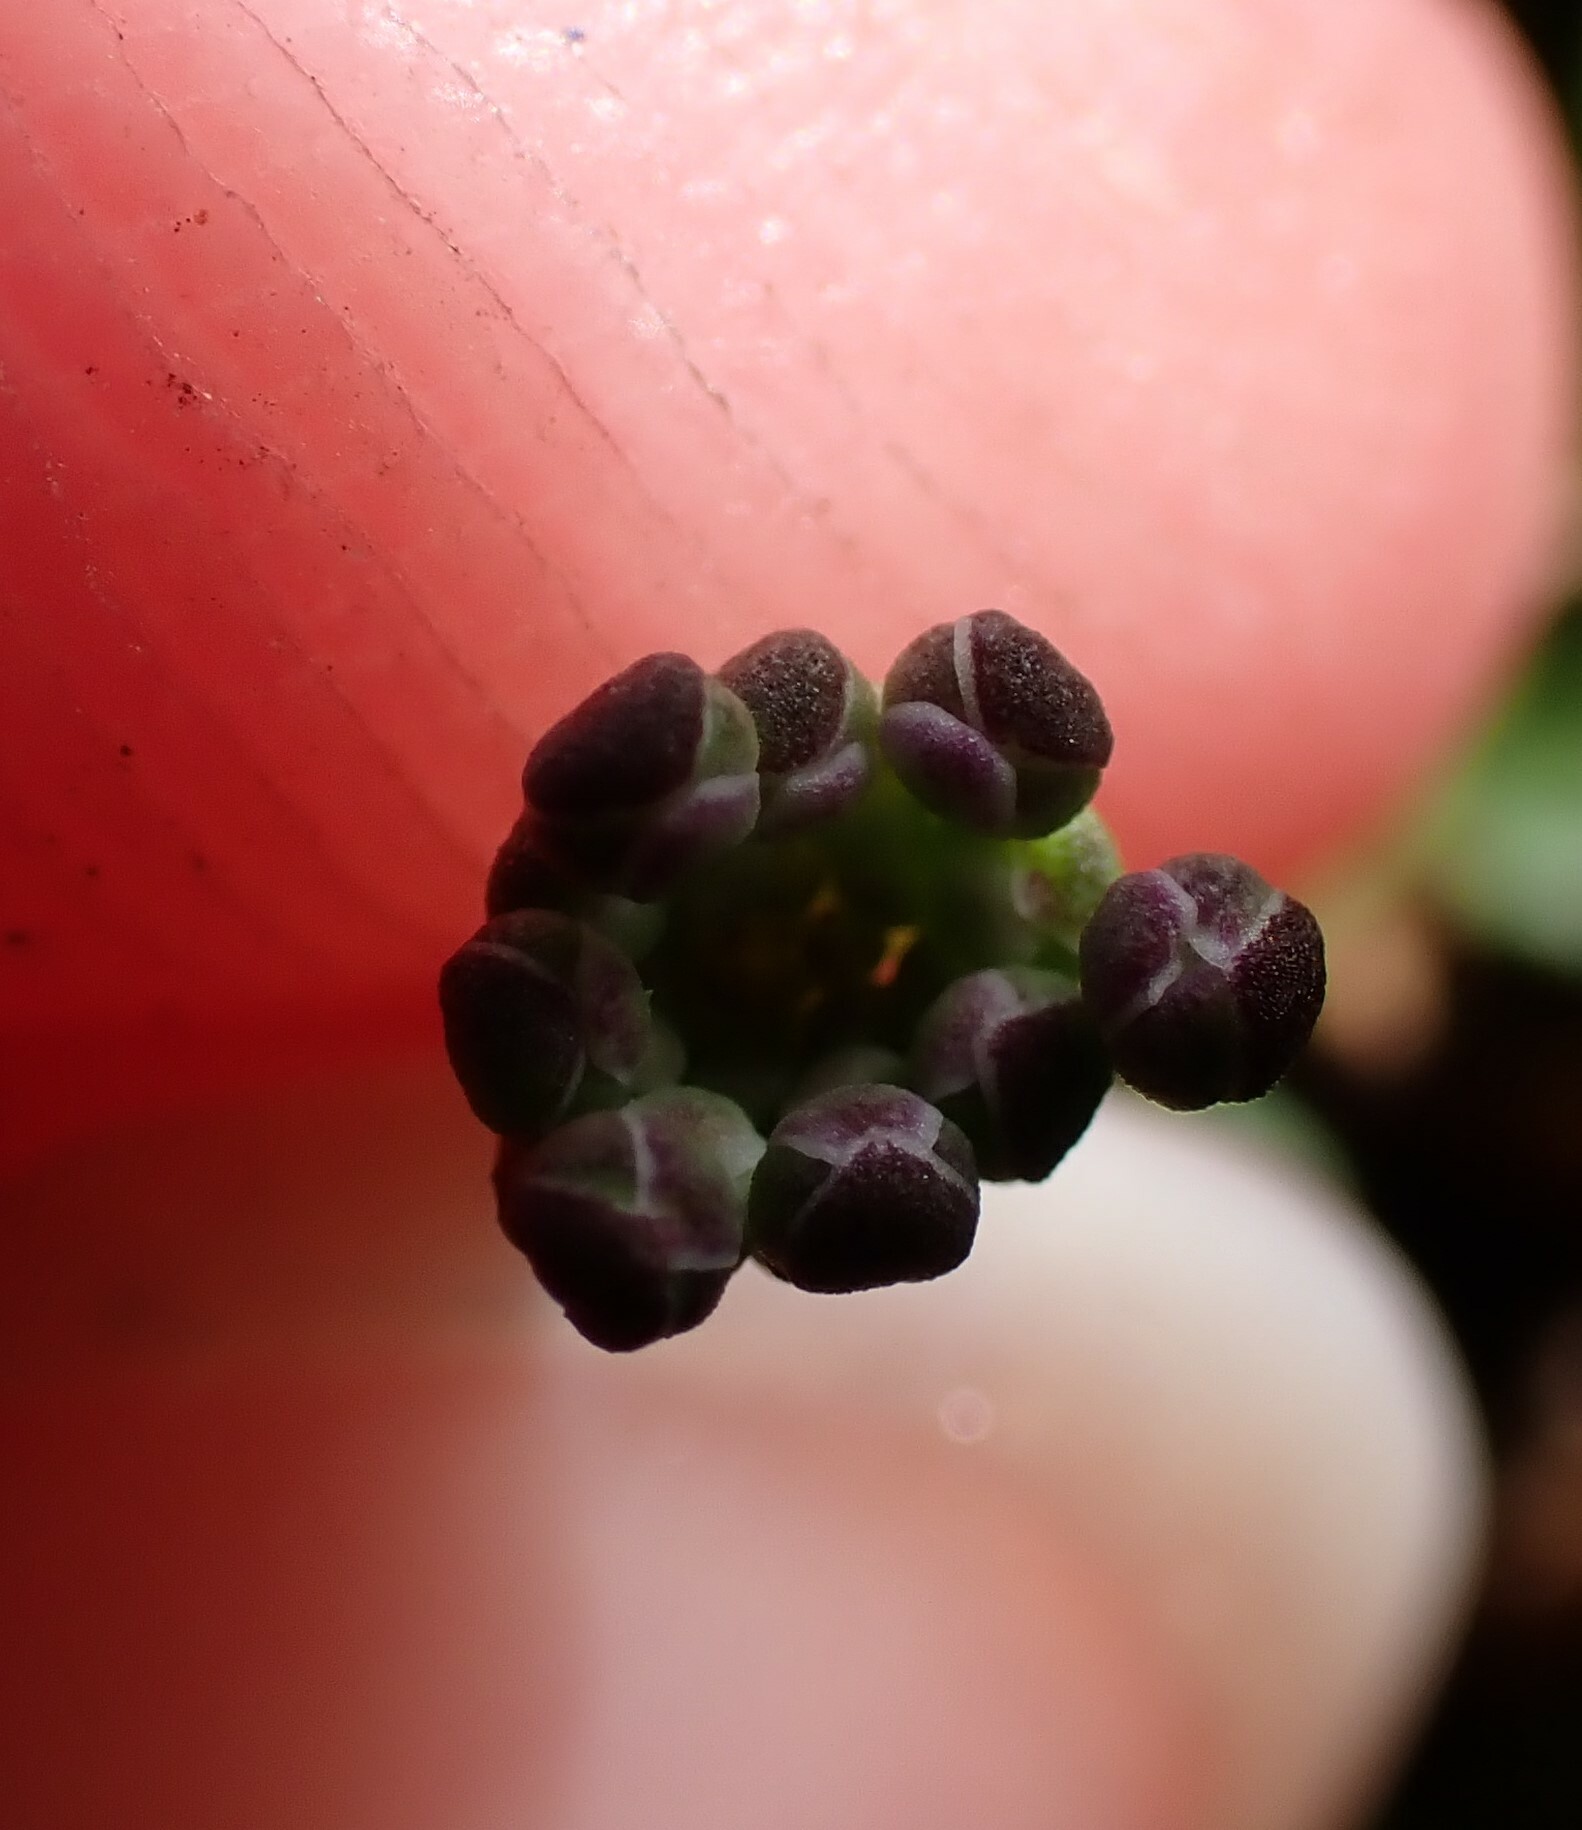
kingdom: Plantae
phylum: Tracheophyta
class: Magnoliopsida
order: Brassicales
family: Brassicaceae
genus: Teesdalia
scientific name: Teesdalia nudicaulis
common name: Shepherd's cress
